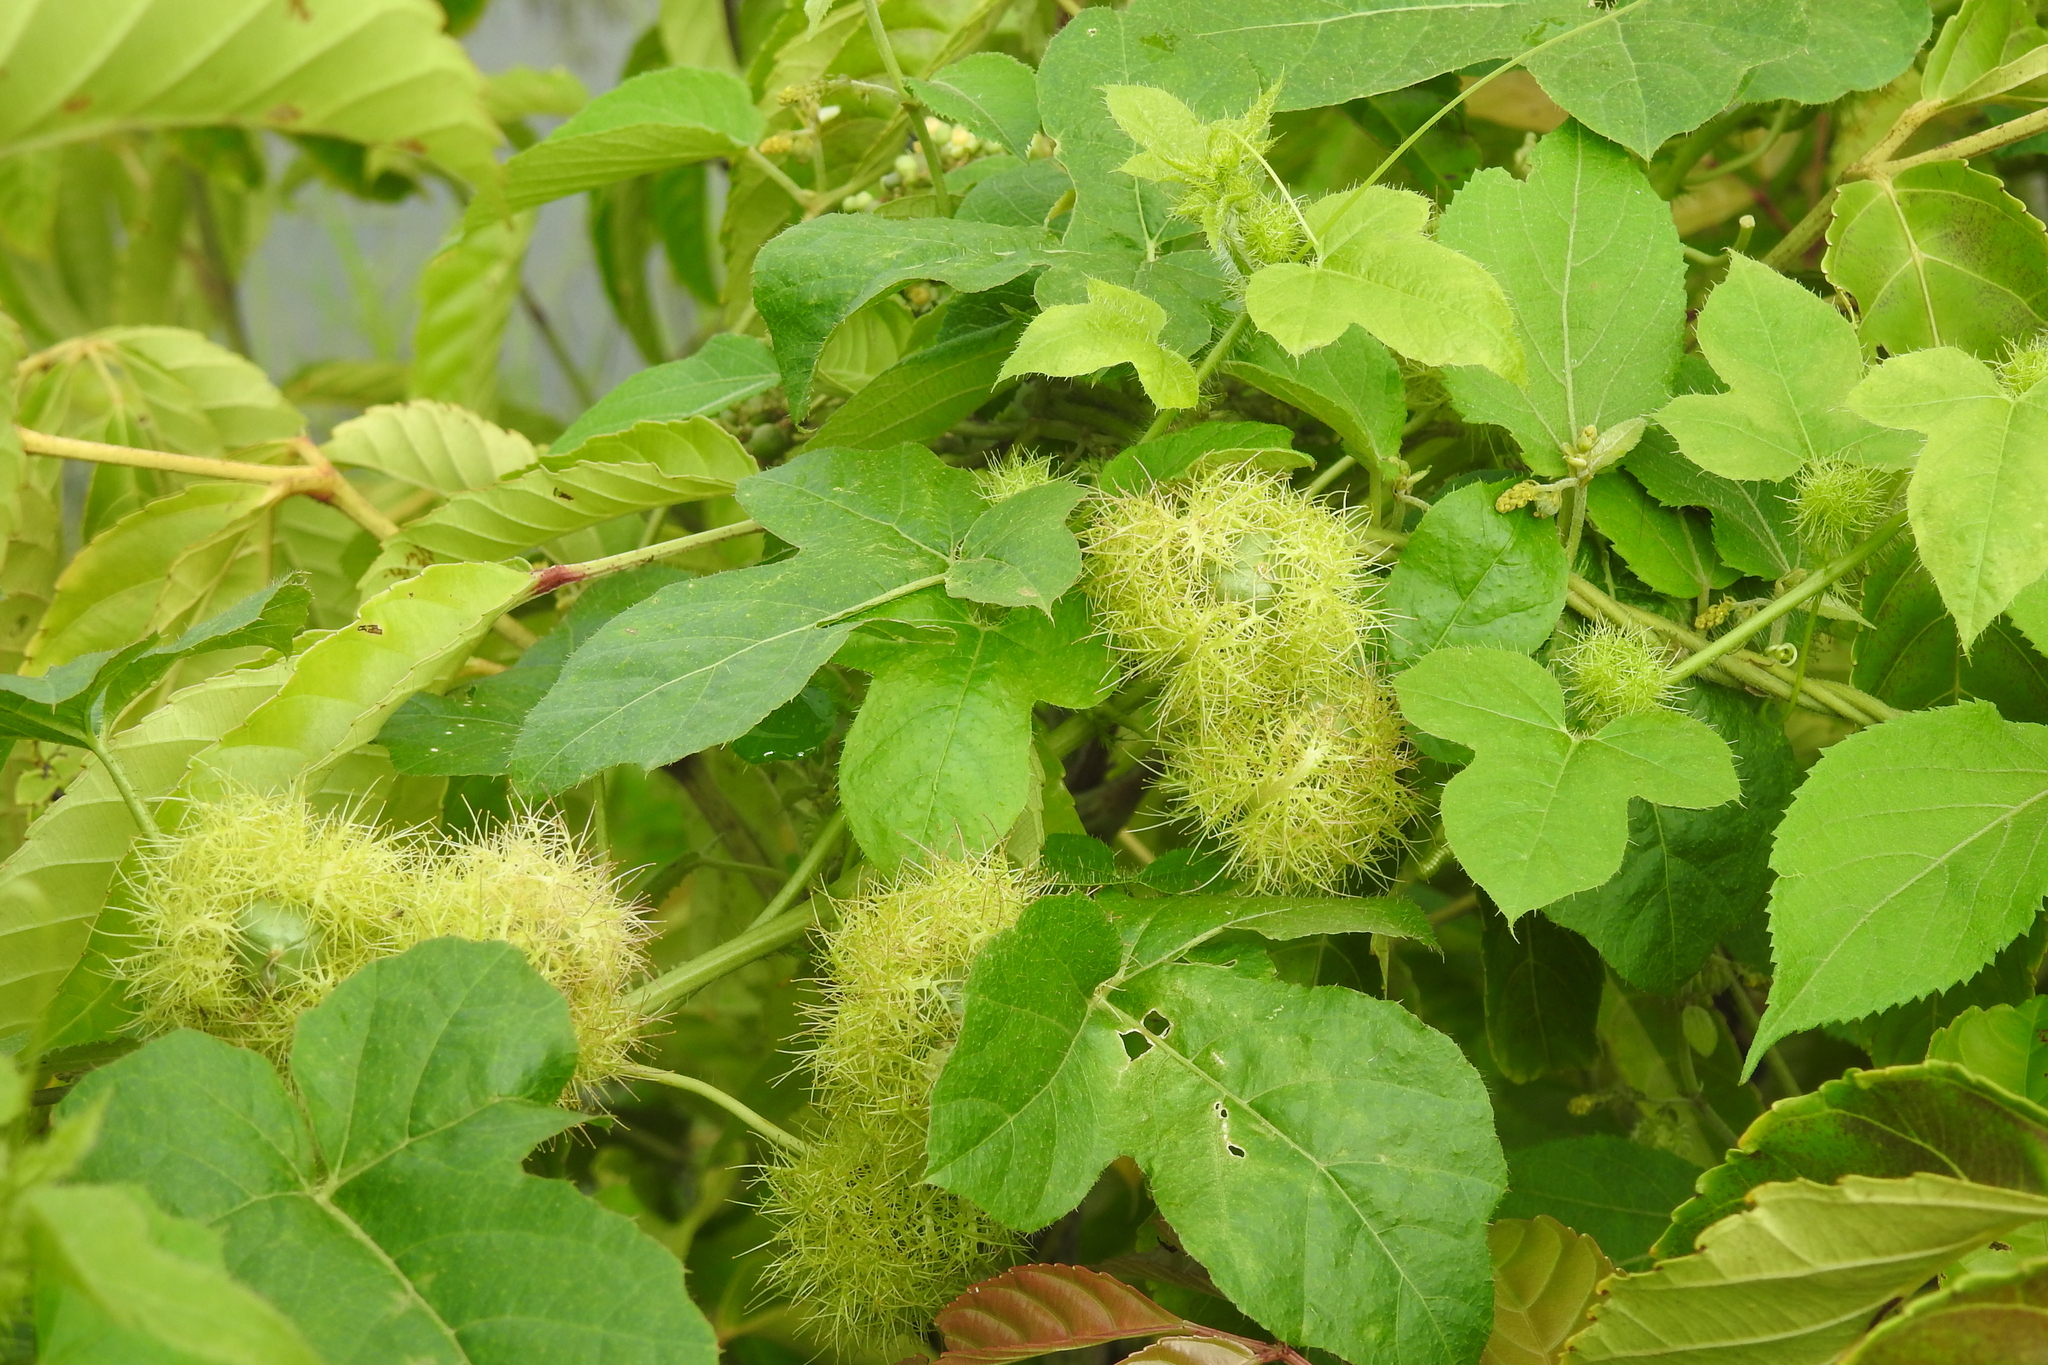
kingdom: Plantae
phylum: Tracheophyta
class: Magnoliopsida
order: Malpighiales
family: Passifloraceae
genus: Passiflora
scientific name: Passiflora vesicaria
